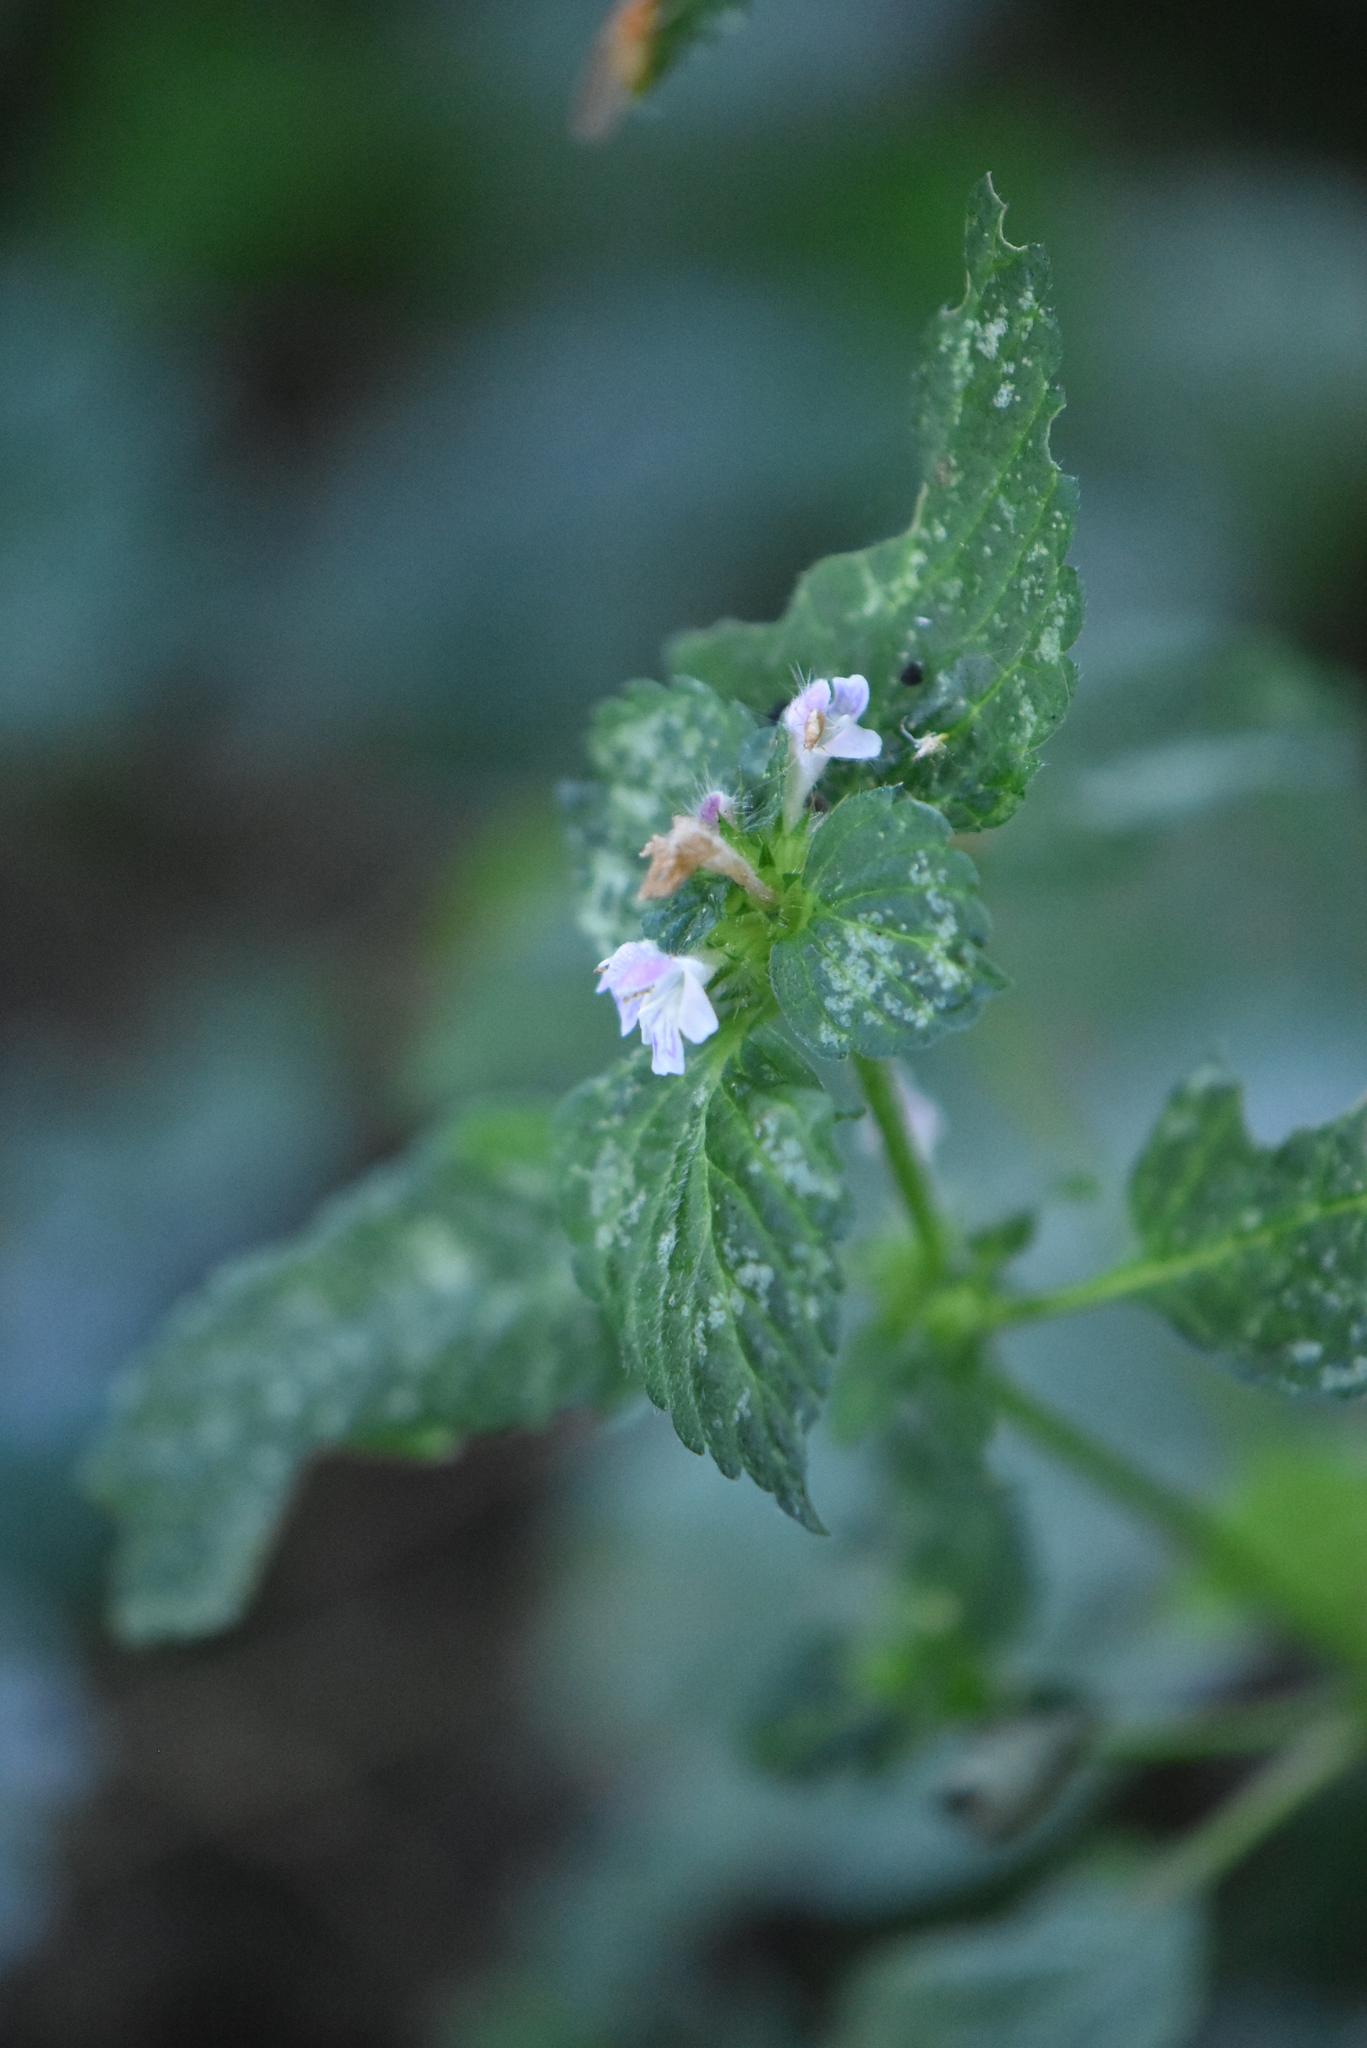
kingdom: Plantae
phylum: Tracheophyta
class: Magnoliopsida
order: Lamiales
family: Lamiaceae
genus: Galeopsis
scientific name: Galeopsis bifida
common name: Bifid hemp-nettle
